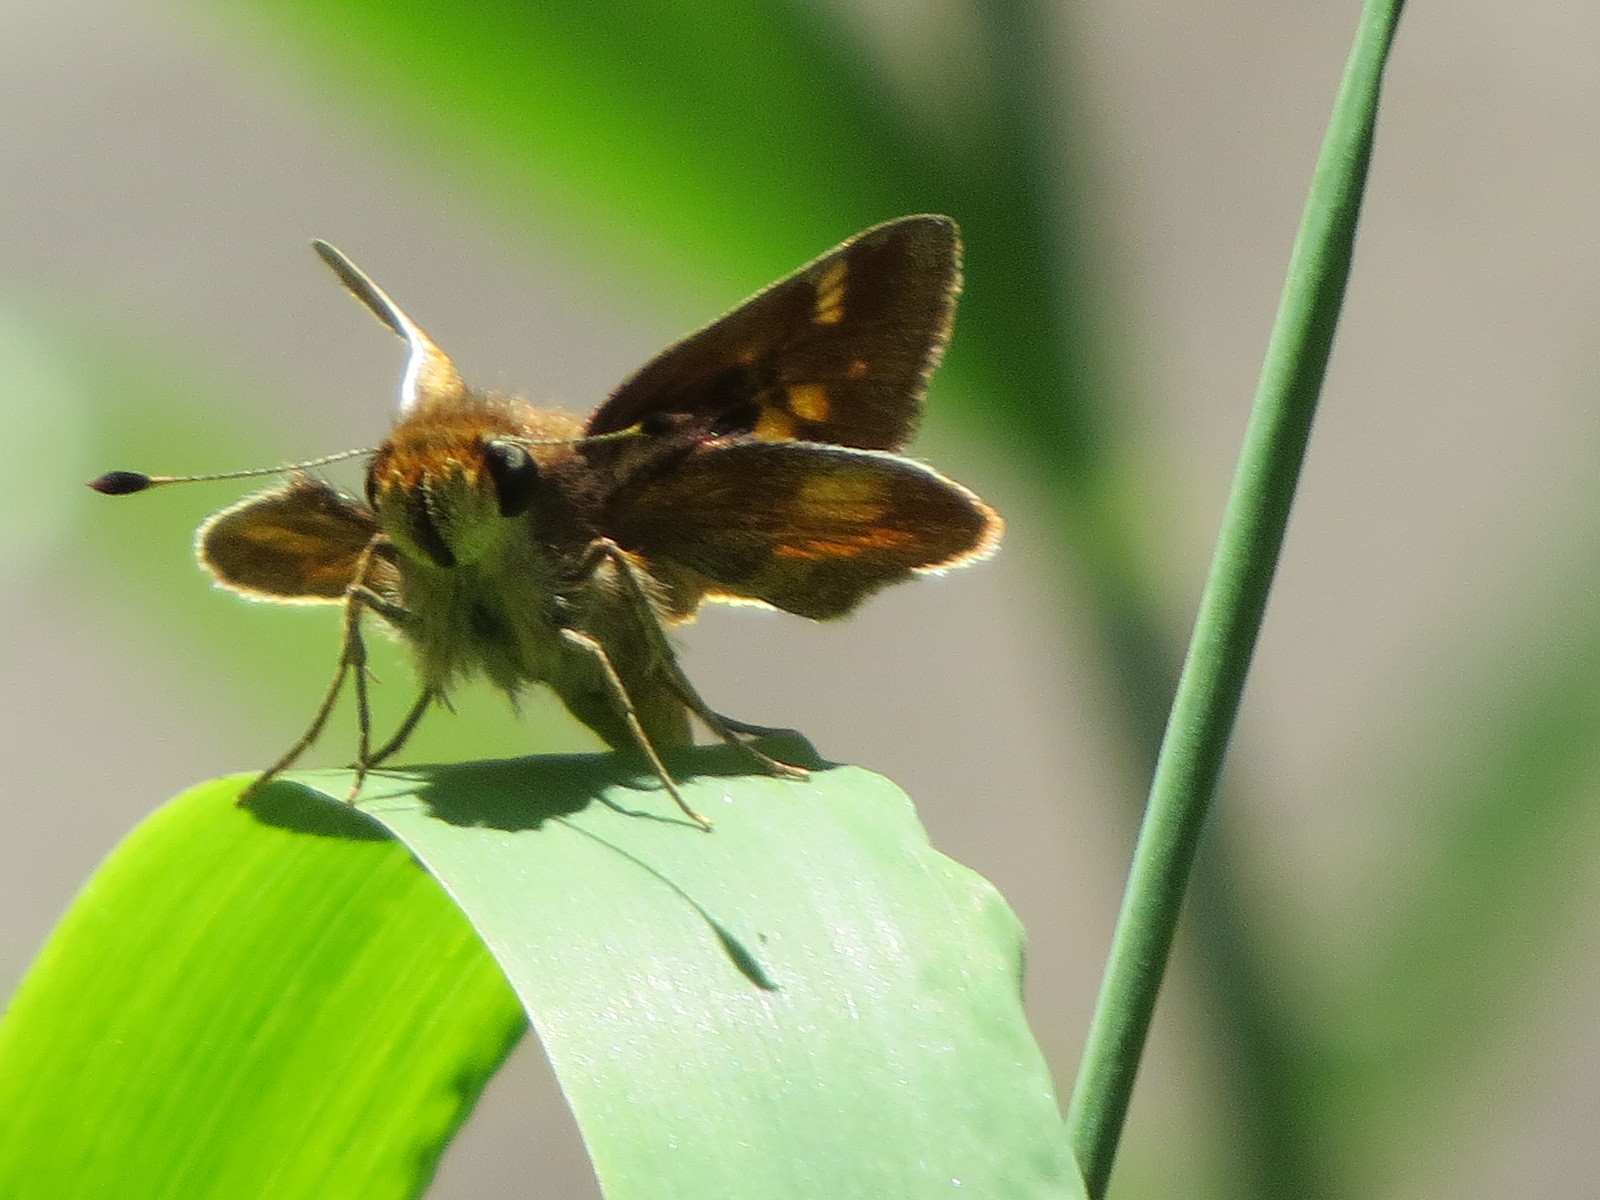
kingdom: Animalia
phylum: Arthropoda
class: Insecta
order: Lepidoptera
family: Hesperiidae
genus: Lon
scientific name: Lon melane
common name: Umber skipper
